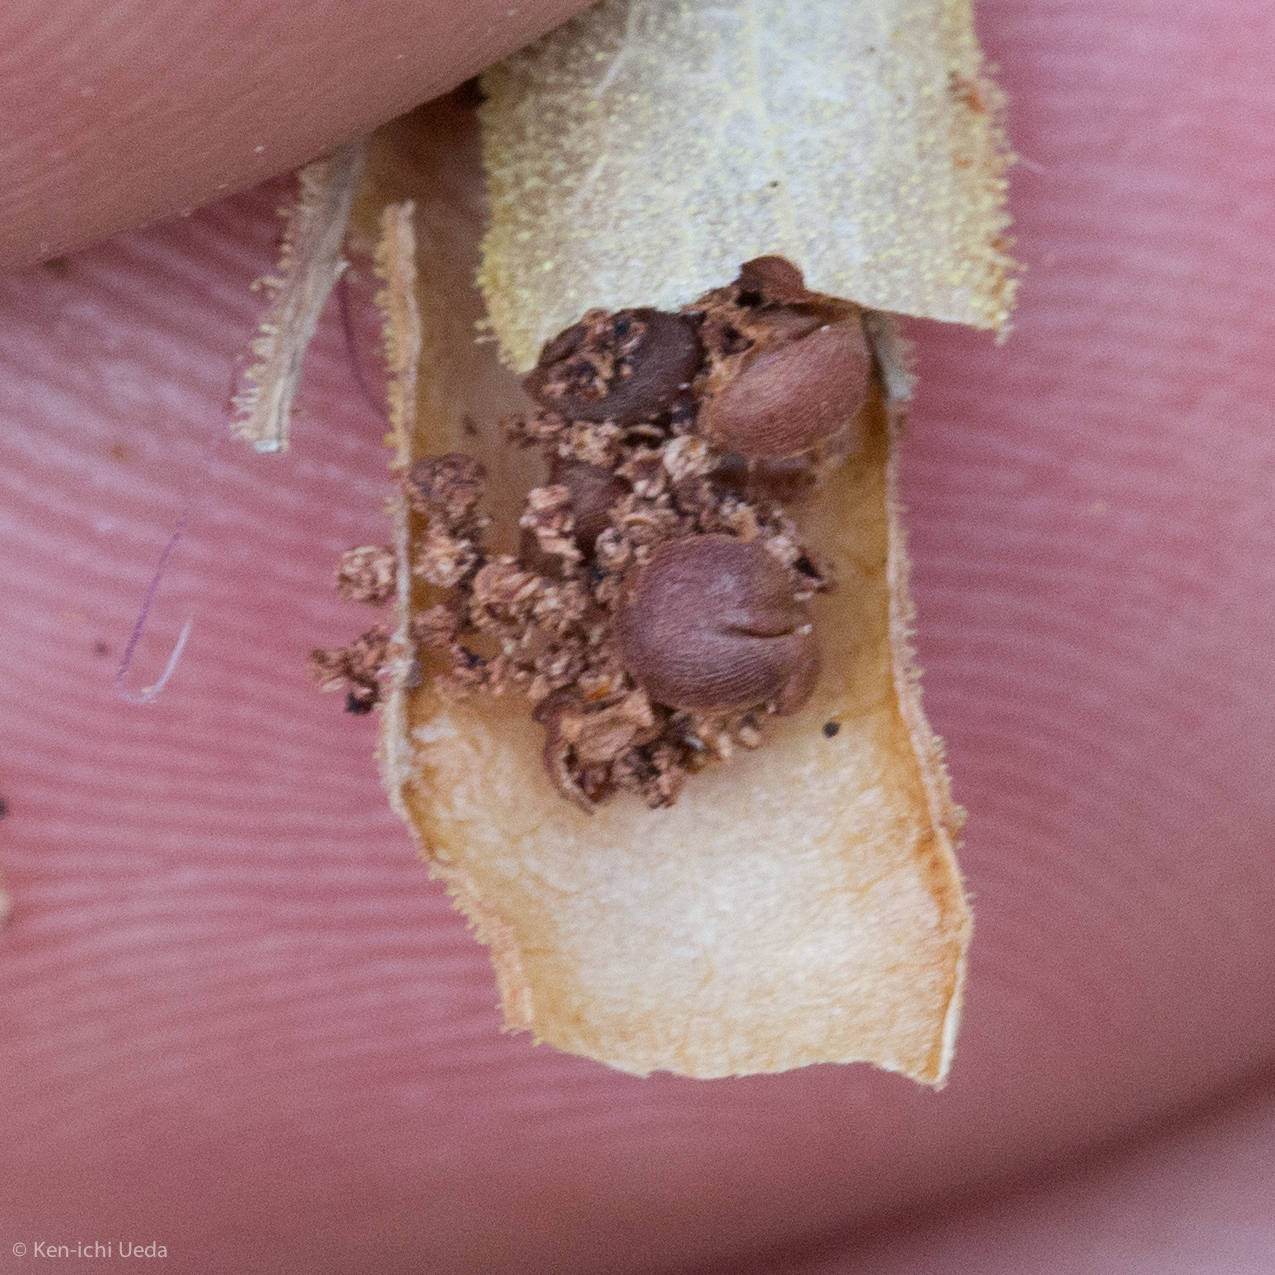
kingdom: Plantae
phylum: Tracheophyta
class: Magnoliopsida
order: Brassicales
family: Cleomaceae
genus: Polanisia
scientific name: Polanisia dodecandra
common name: Clammyweed
